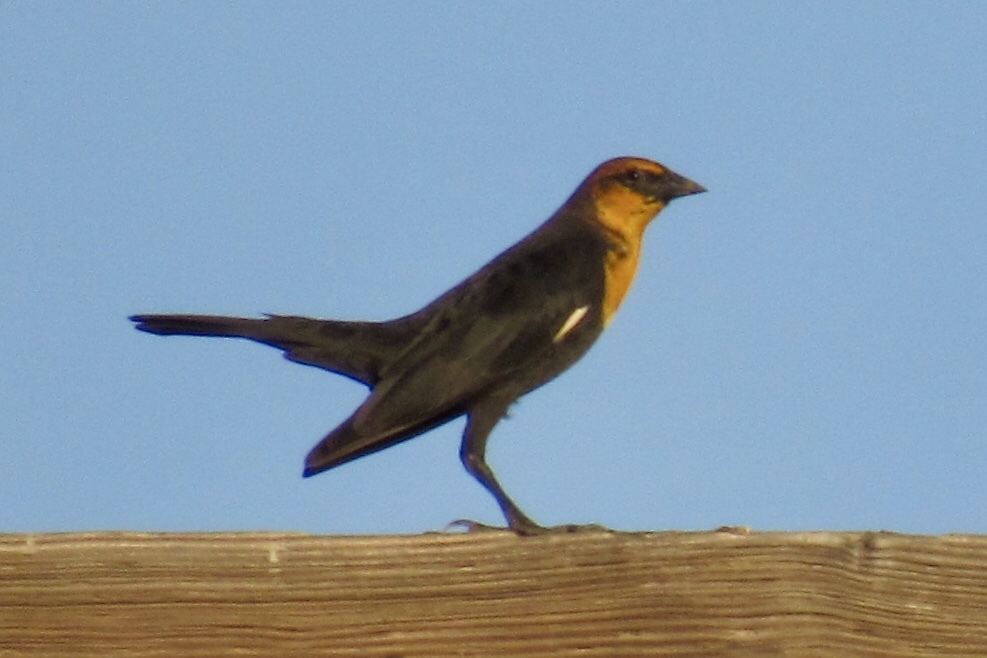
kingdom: Animalia
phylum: Chordata
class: Aves
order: Passeriformes
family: Icteridae
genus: Xanthocephalus
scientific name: Xanthocephalus xanthocephalus
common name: Yellow-headed blackbird
